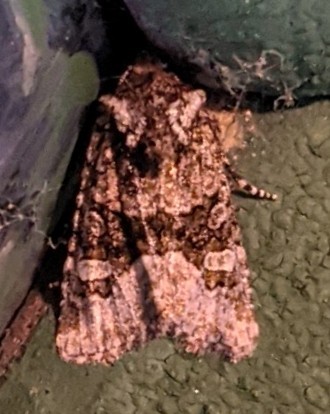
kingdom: Animalia
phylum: Arthropoda
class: Insecta
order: Lepidoptera
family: Noctuidae
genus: Lacinipolia
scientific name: Lacinipolia olivacea
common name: Olive arches moth
